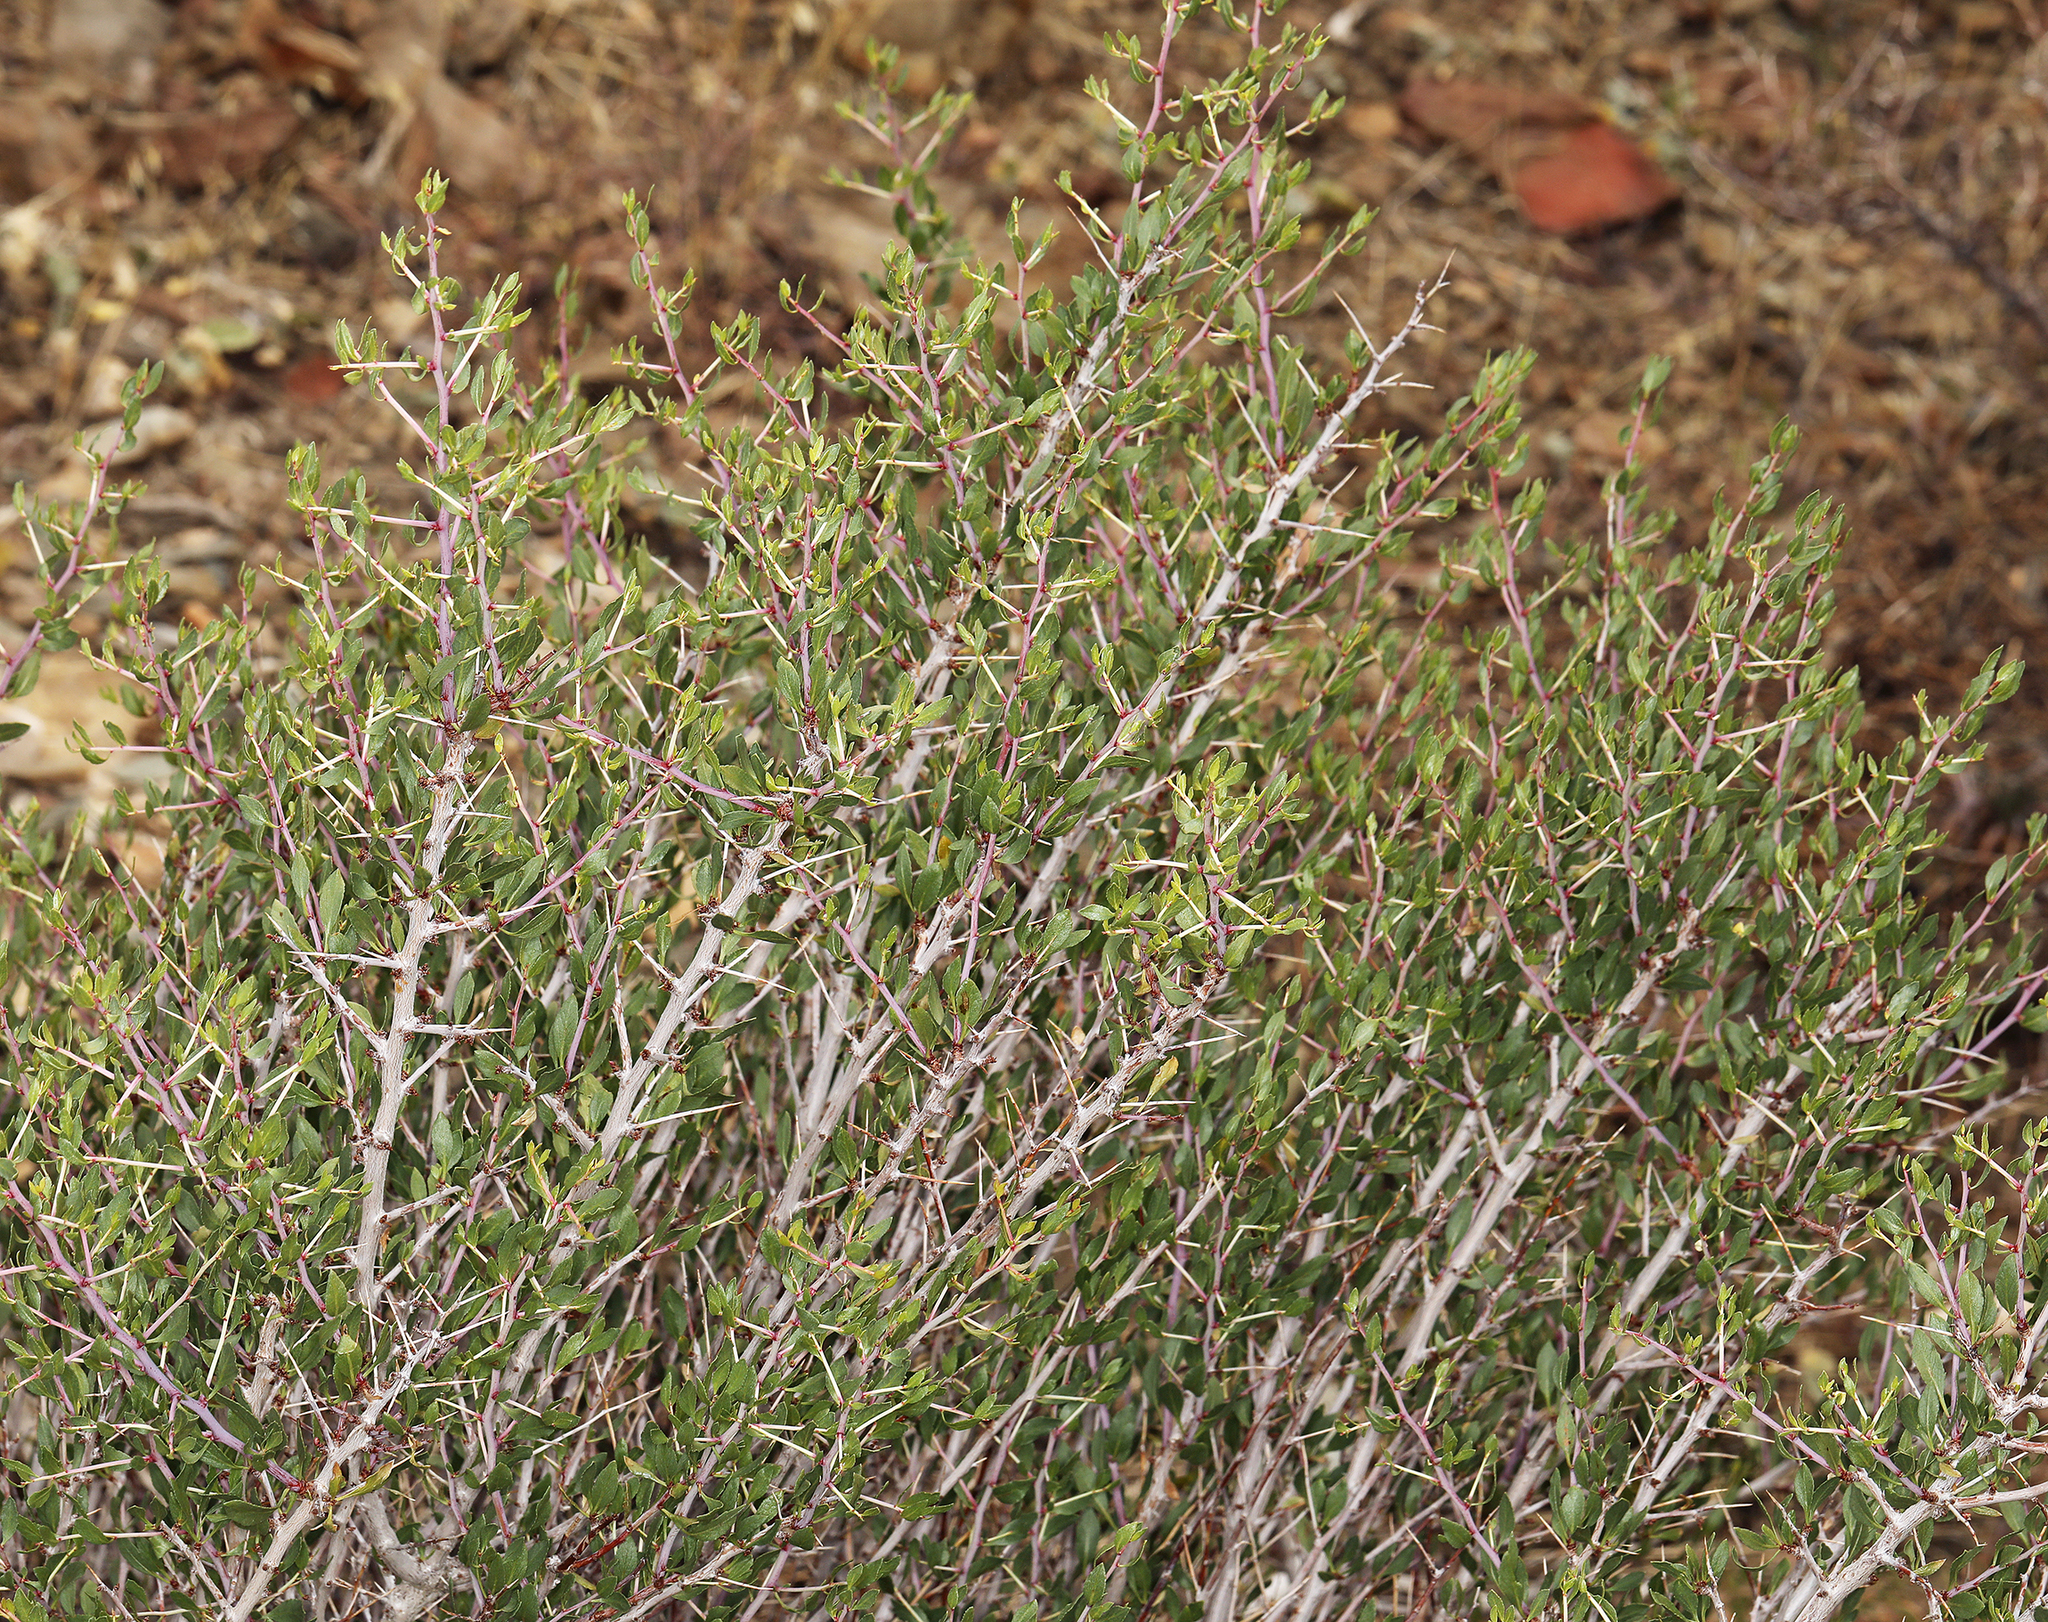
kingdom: Plantae
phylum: Tracheophyta
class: Magnoliopsida
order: Rosales
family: Rosaceae
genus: Prunus
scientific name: Prunus andersonii
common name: Desert peach
